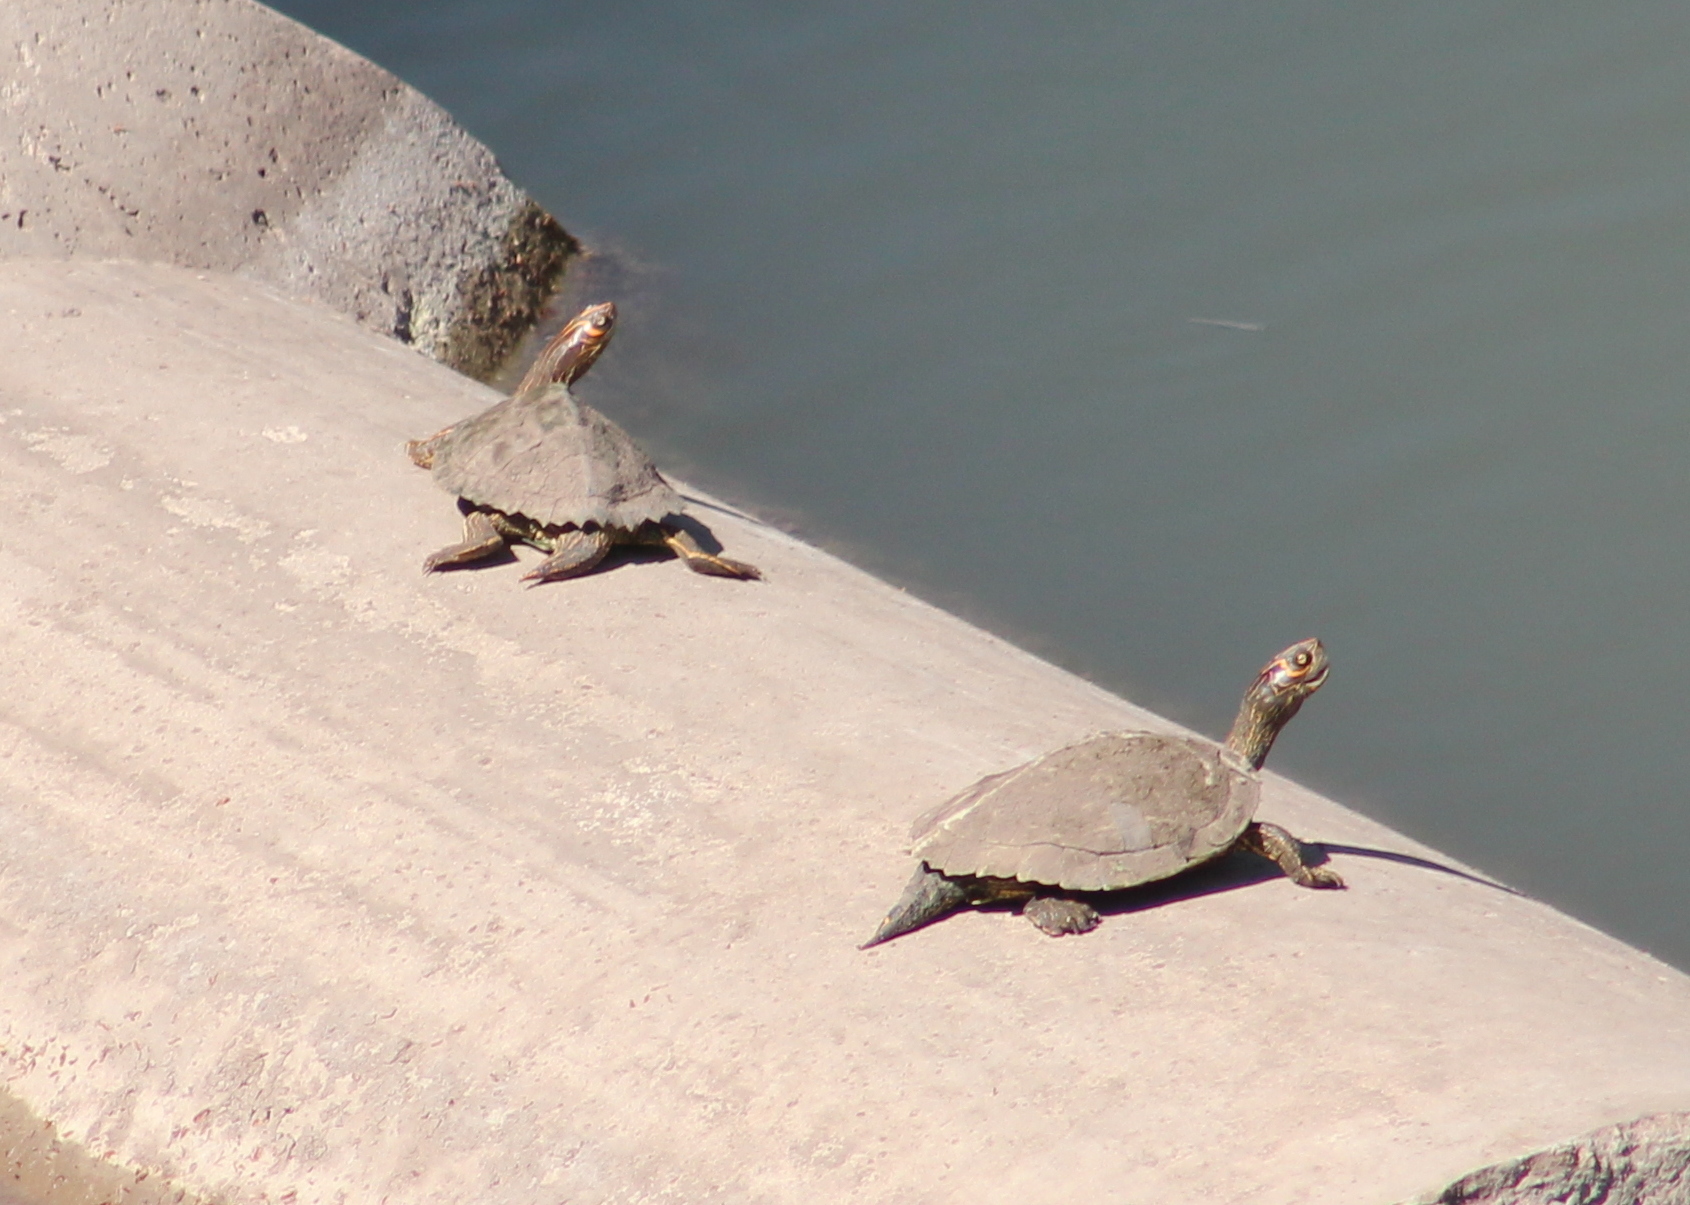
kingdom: Animalia
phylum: Chordata
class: Testudines
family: Emydidae
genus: Graptemys
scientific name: Graptemys pseudogeographica
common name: False map turtle
